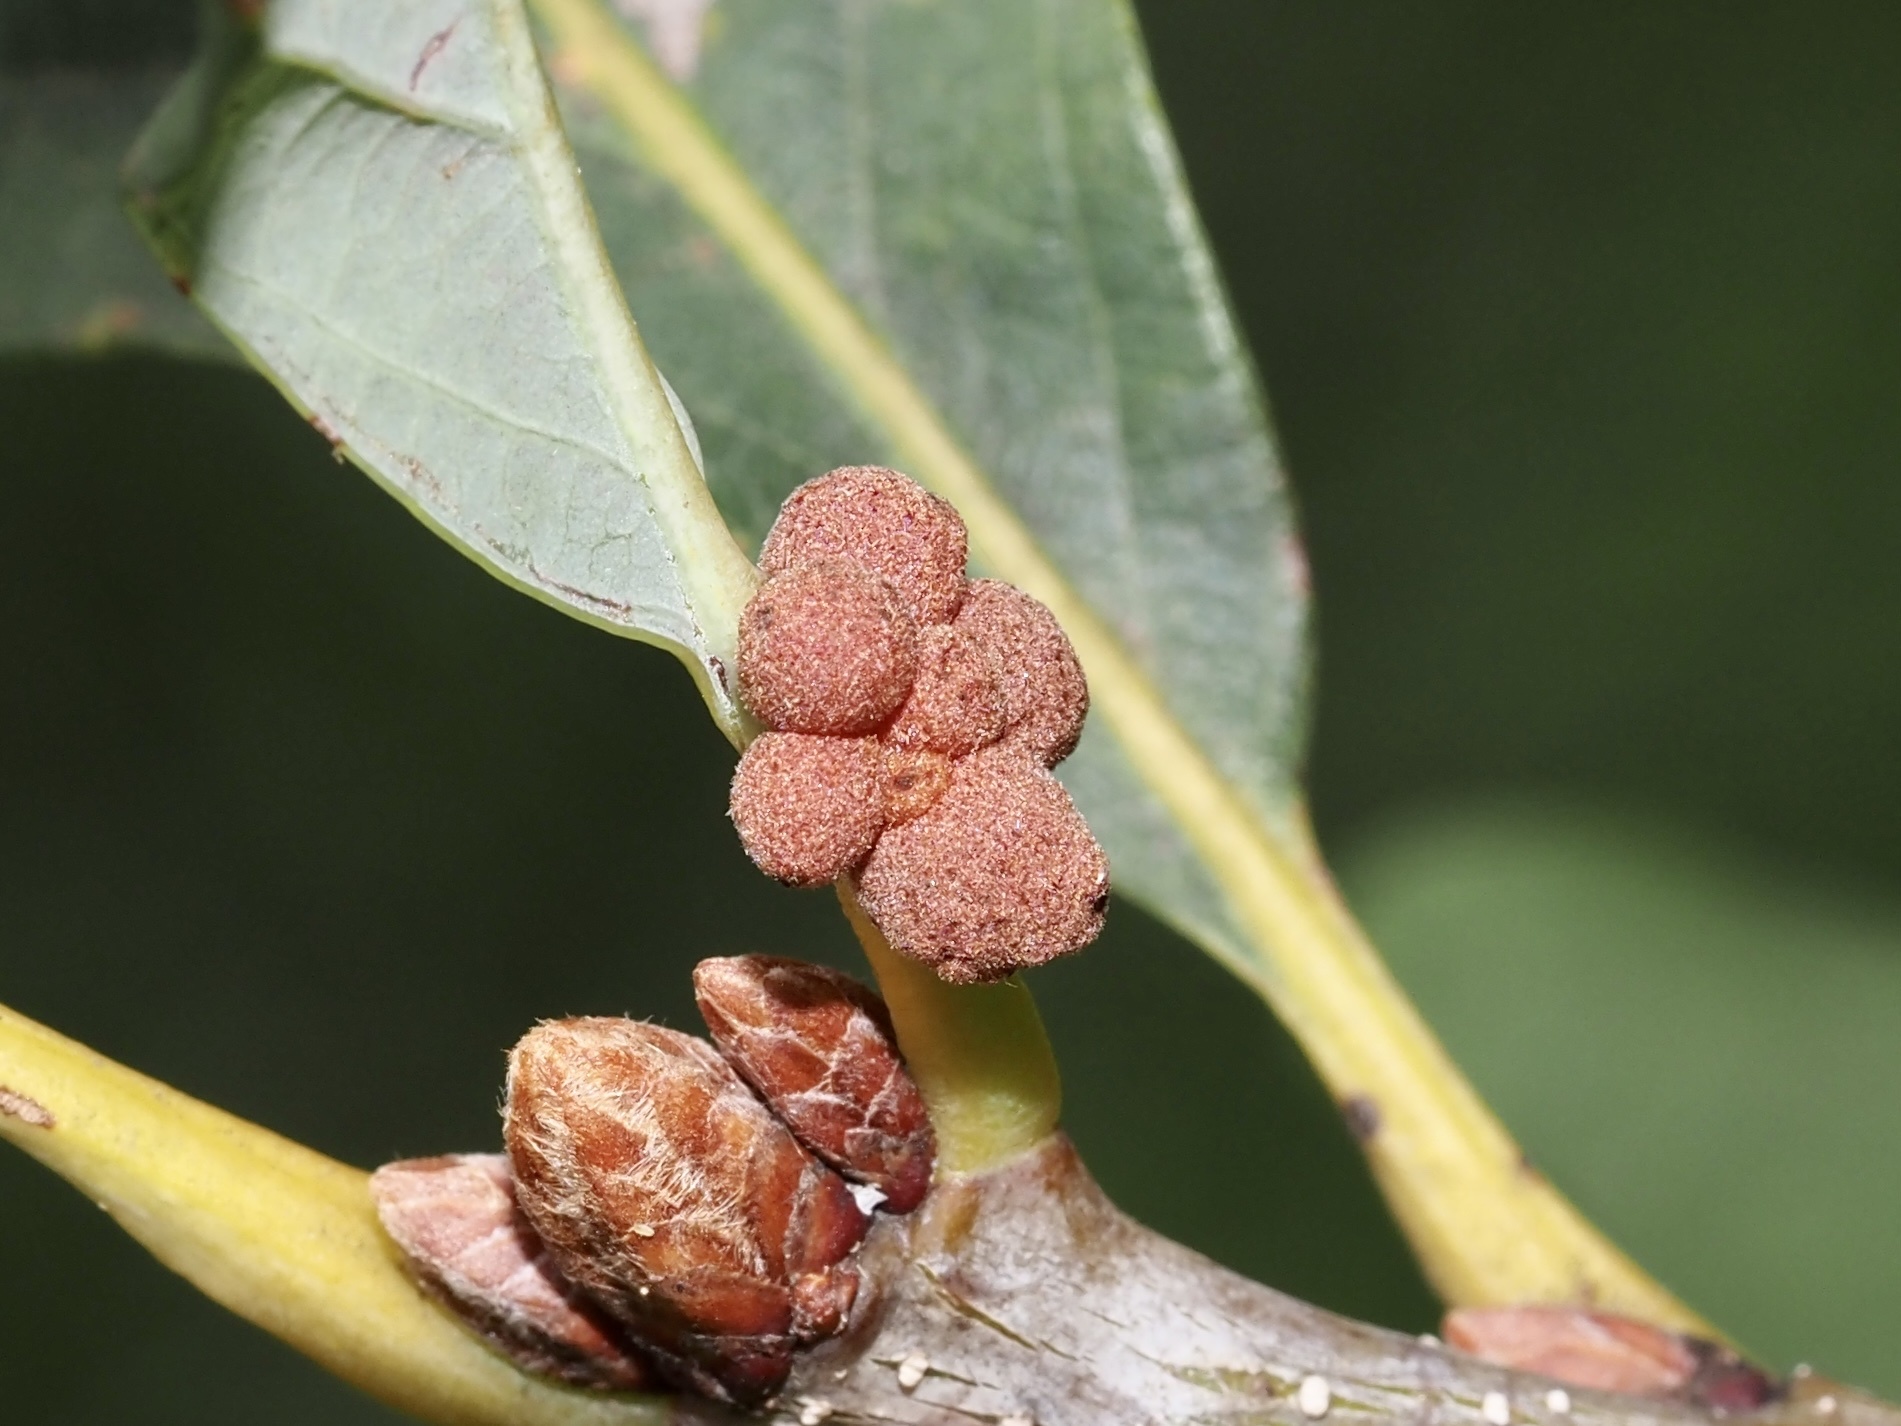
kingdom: Animalia
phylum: Arthropoda
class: Insecta
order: Hymenoptera
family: Cynipidae
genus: Andricus
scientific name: Andricus
